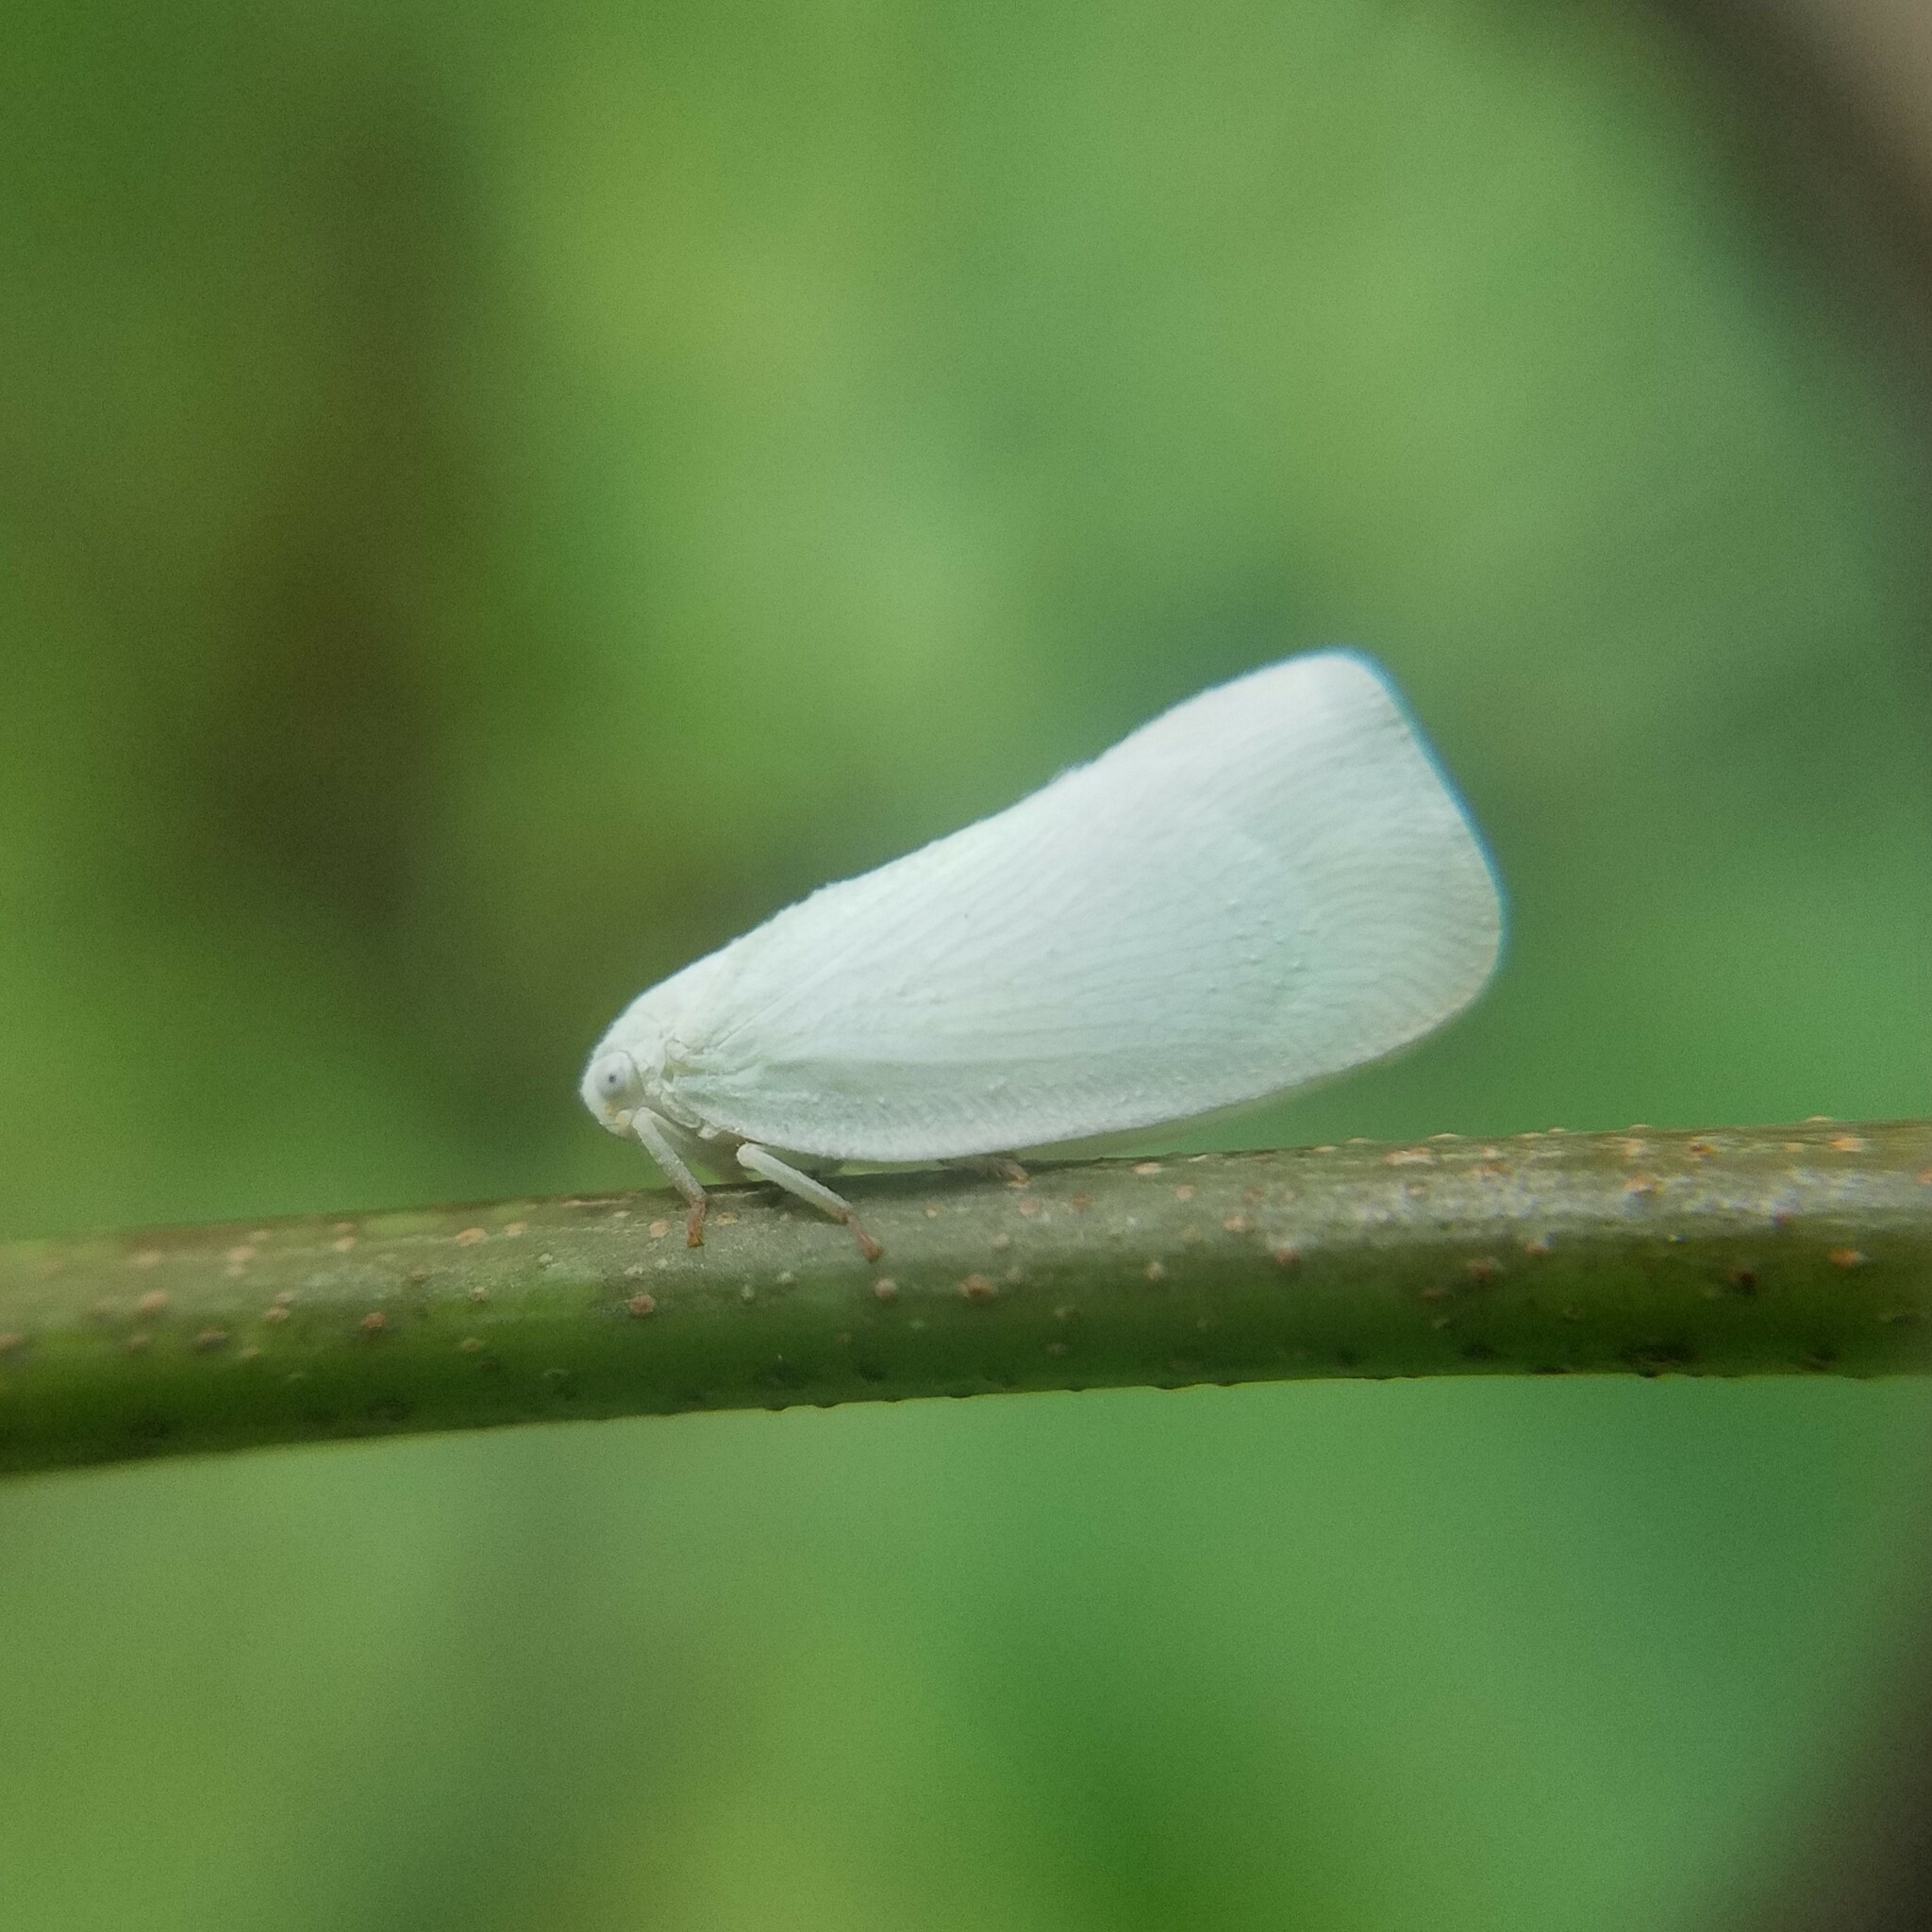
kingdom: Animalia
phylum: Arthropoda
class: Insecta
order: Hemiptera
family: Flatidae
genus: Flatormenis
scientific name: Flatormenis proxima
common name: Northern flatid planthopper
